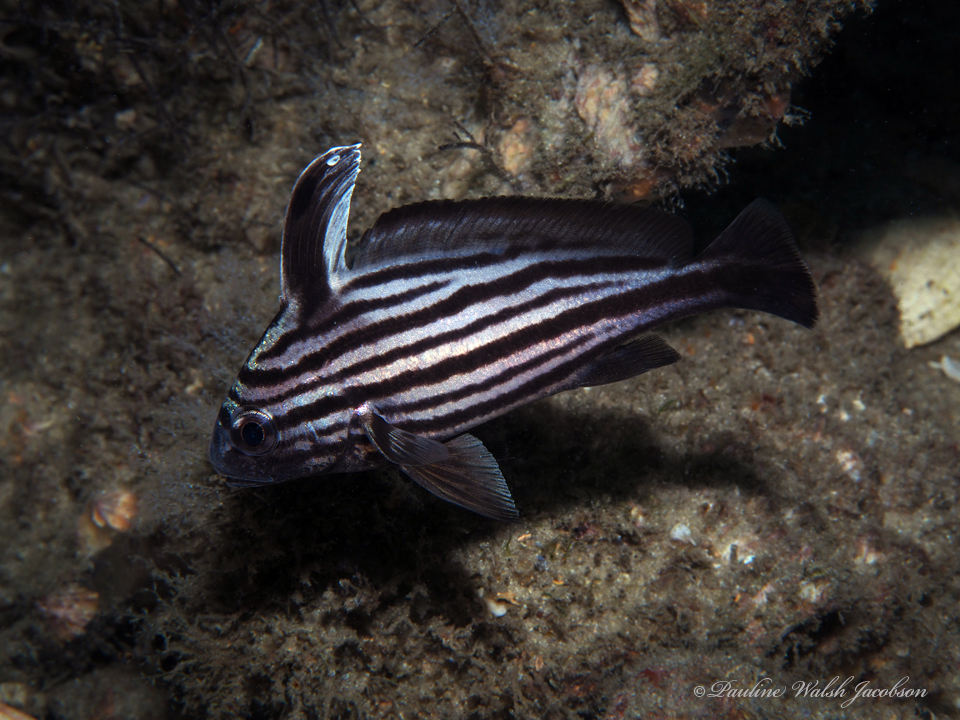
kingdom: Animalia
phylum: Chordata
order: Perciformes
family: Sciaenidae
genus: Pareques
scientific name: Pareques acuminatus
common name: High-hat
